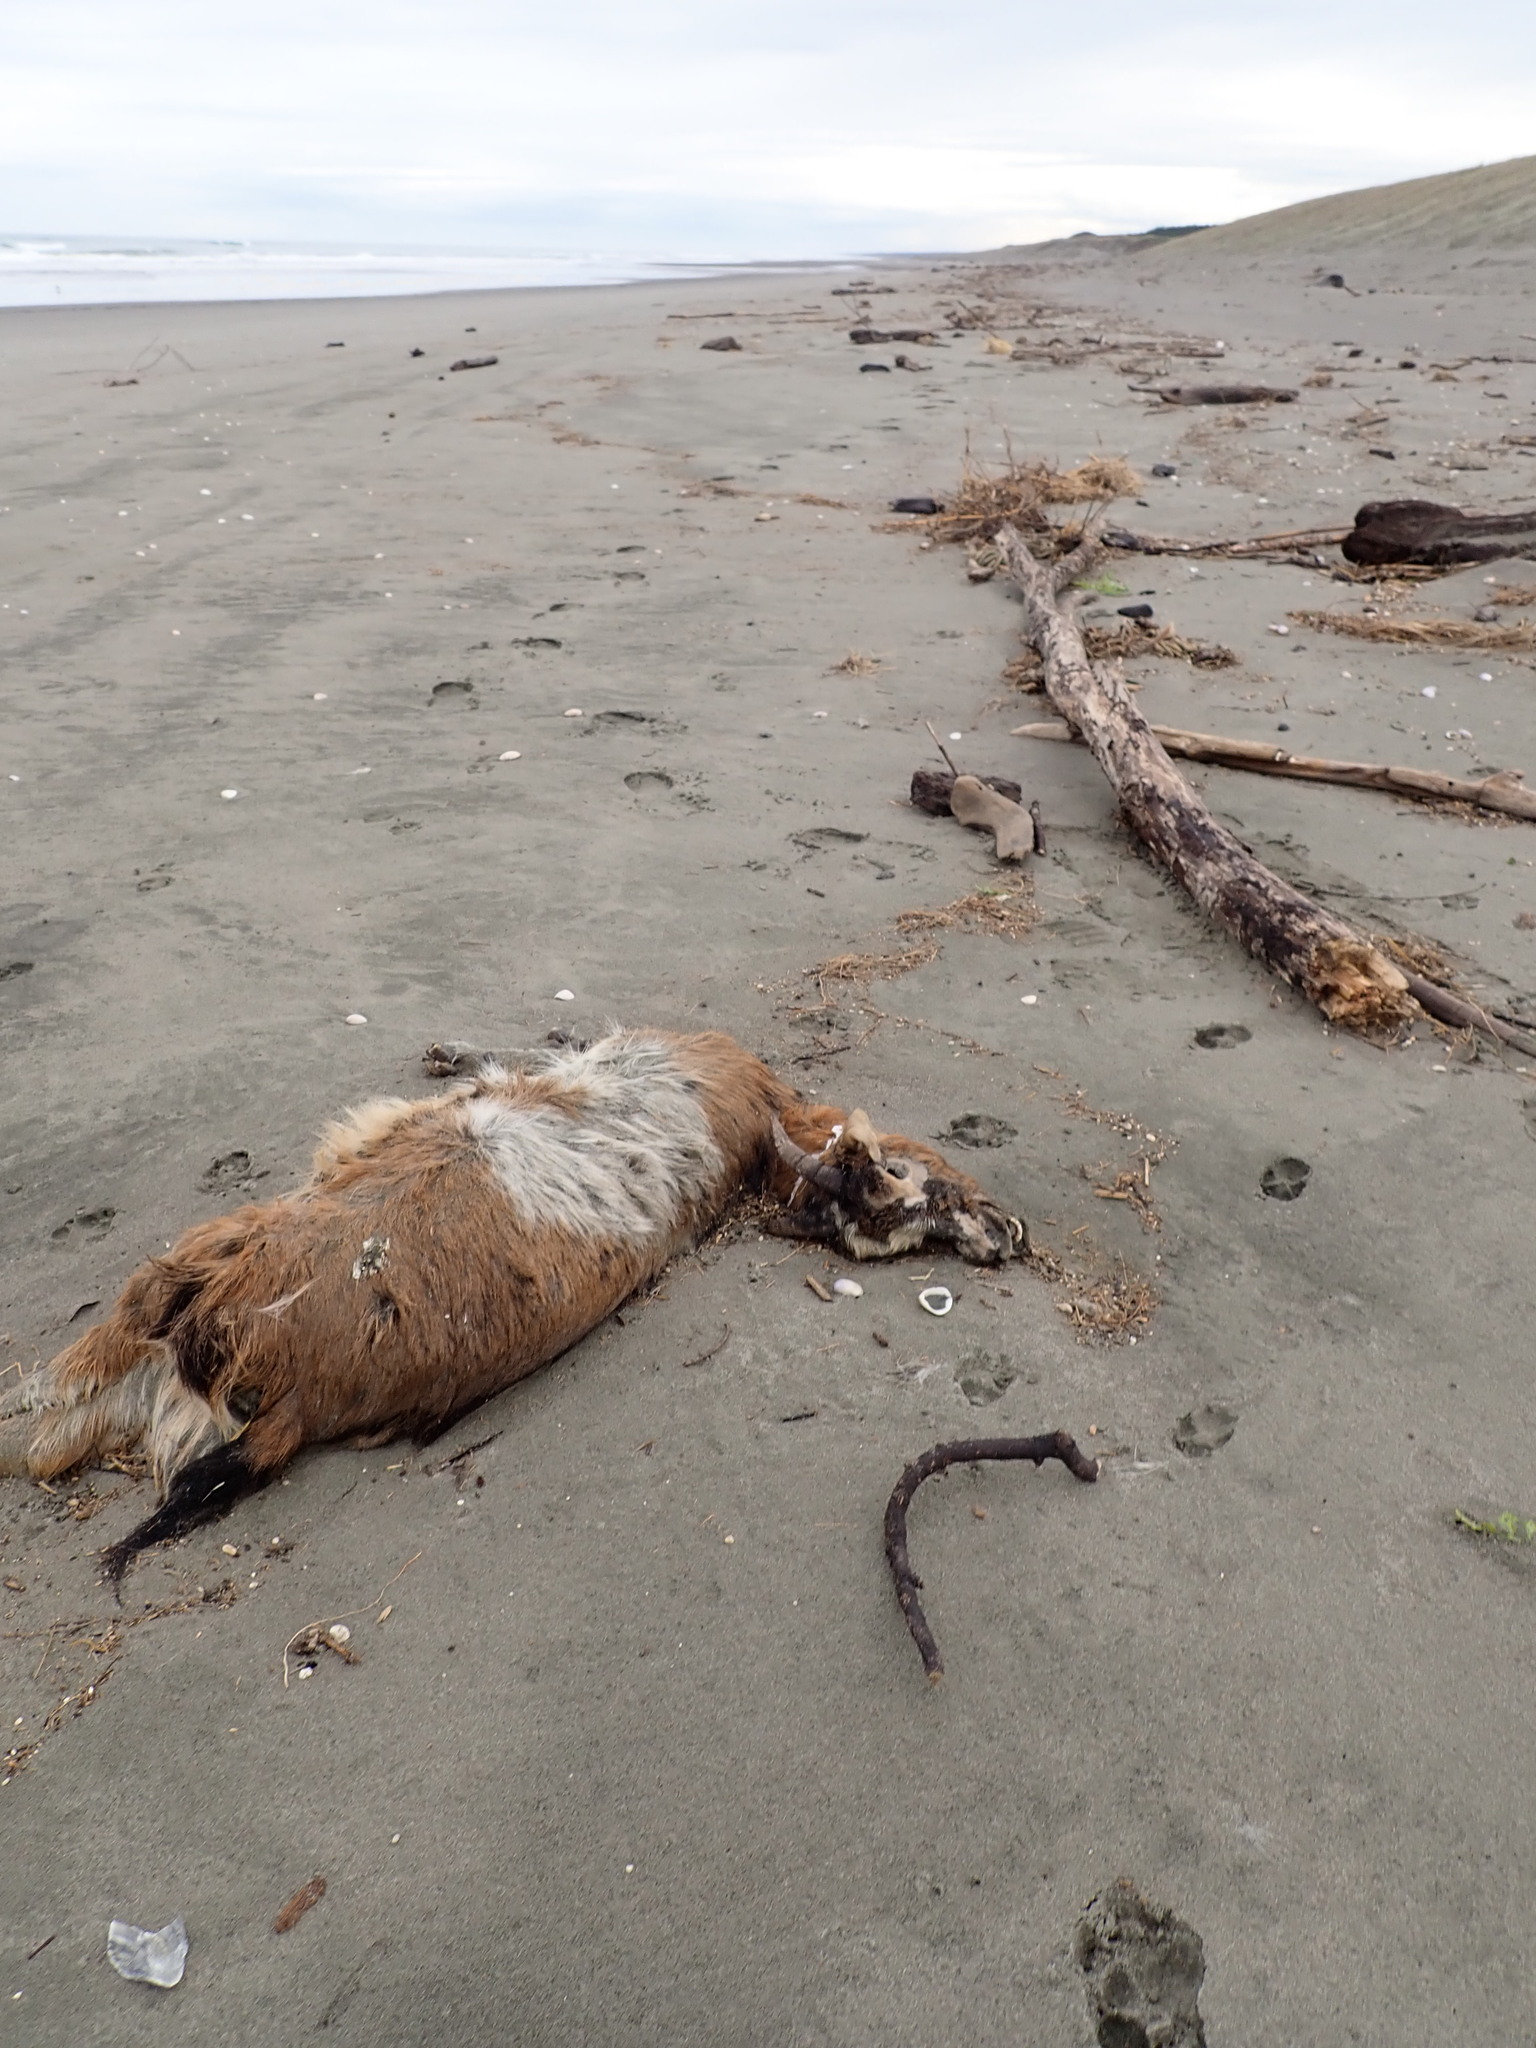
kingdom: Animalia
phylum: Chordata
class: Mammalia
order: Artiodactyla
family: Bovidae
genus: Capra
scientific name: Capra hircus
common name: Domestic goat
